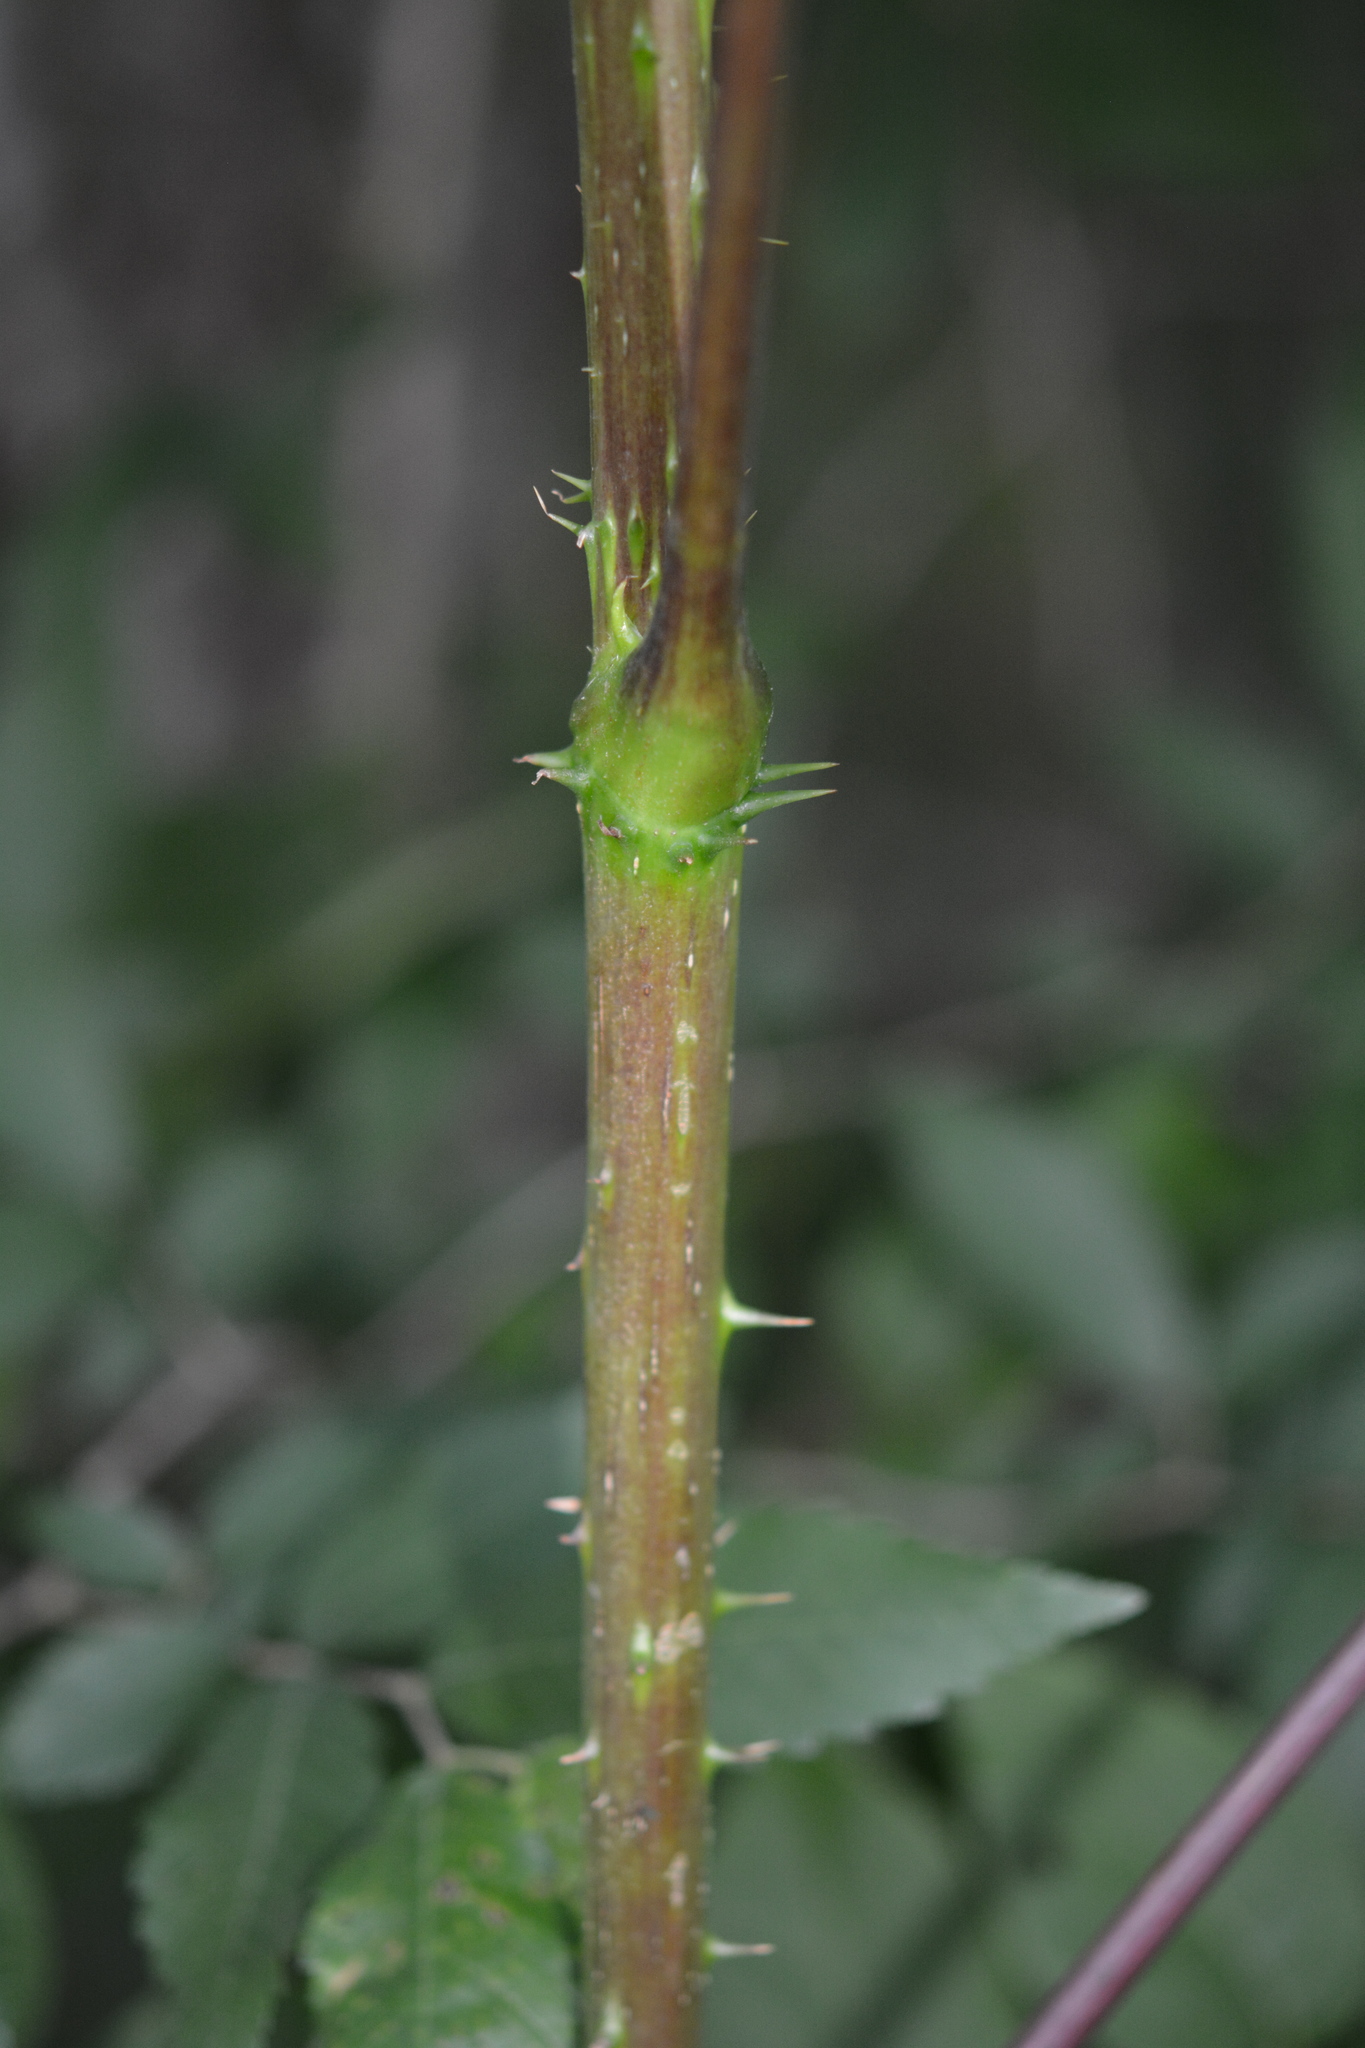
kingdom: Plantae
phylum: Tracheophyta
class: Magnoliopsida
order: Apiales
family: Araliaceae
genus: Aralia
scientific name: Aralia spinosa
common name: Hercules'-club
